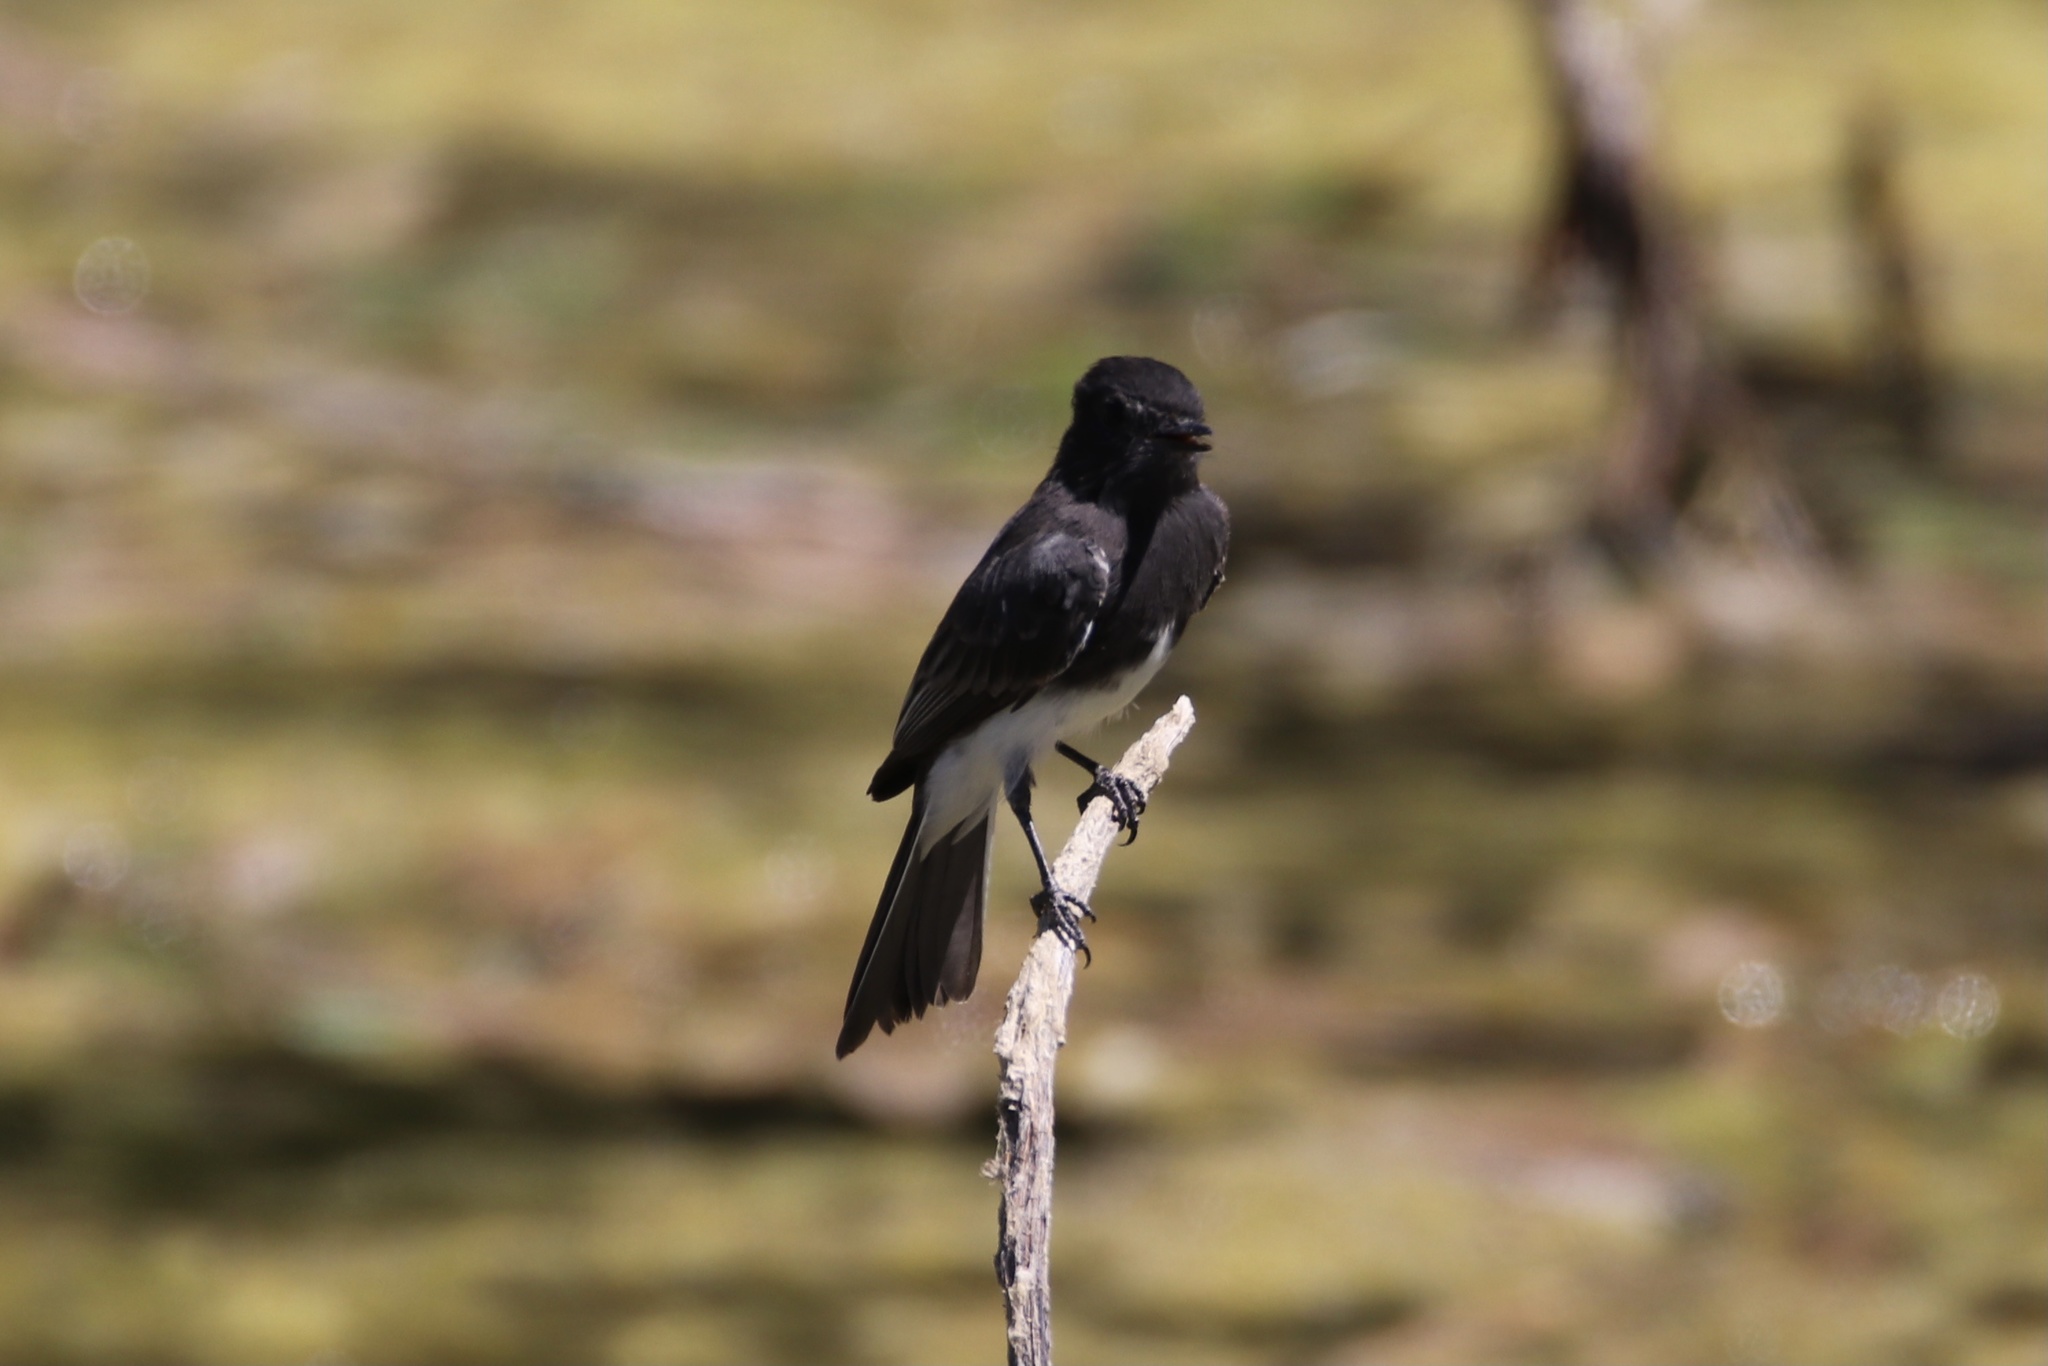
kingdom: Animalia
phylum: Chordata
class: Aves
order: Passeriformes
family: Tyrannidae
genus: Sayornis
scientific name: Sayornis nigricans
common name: Black phoebe
